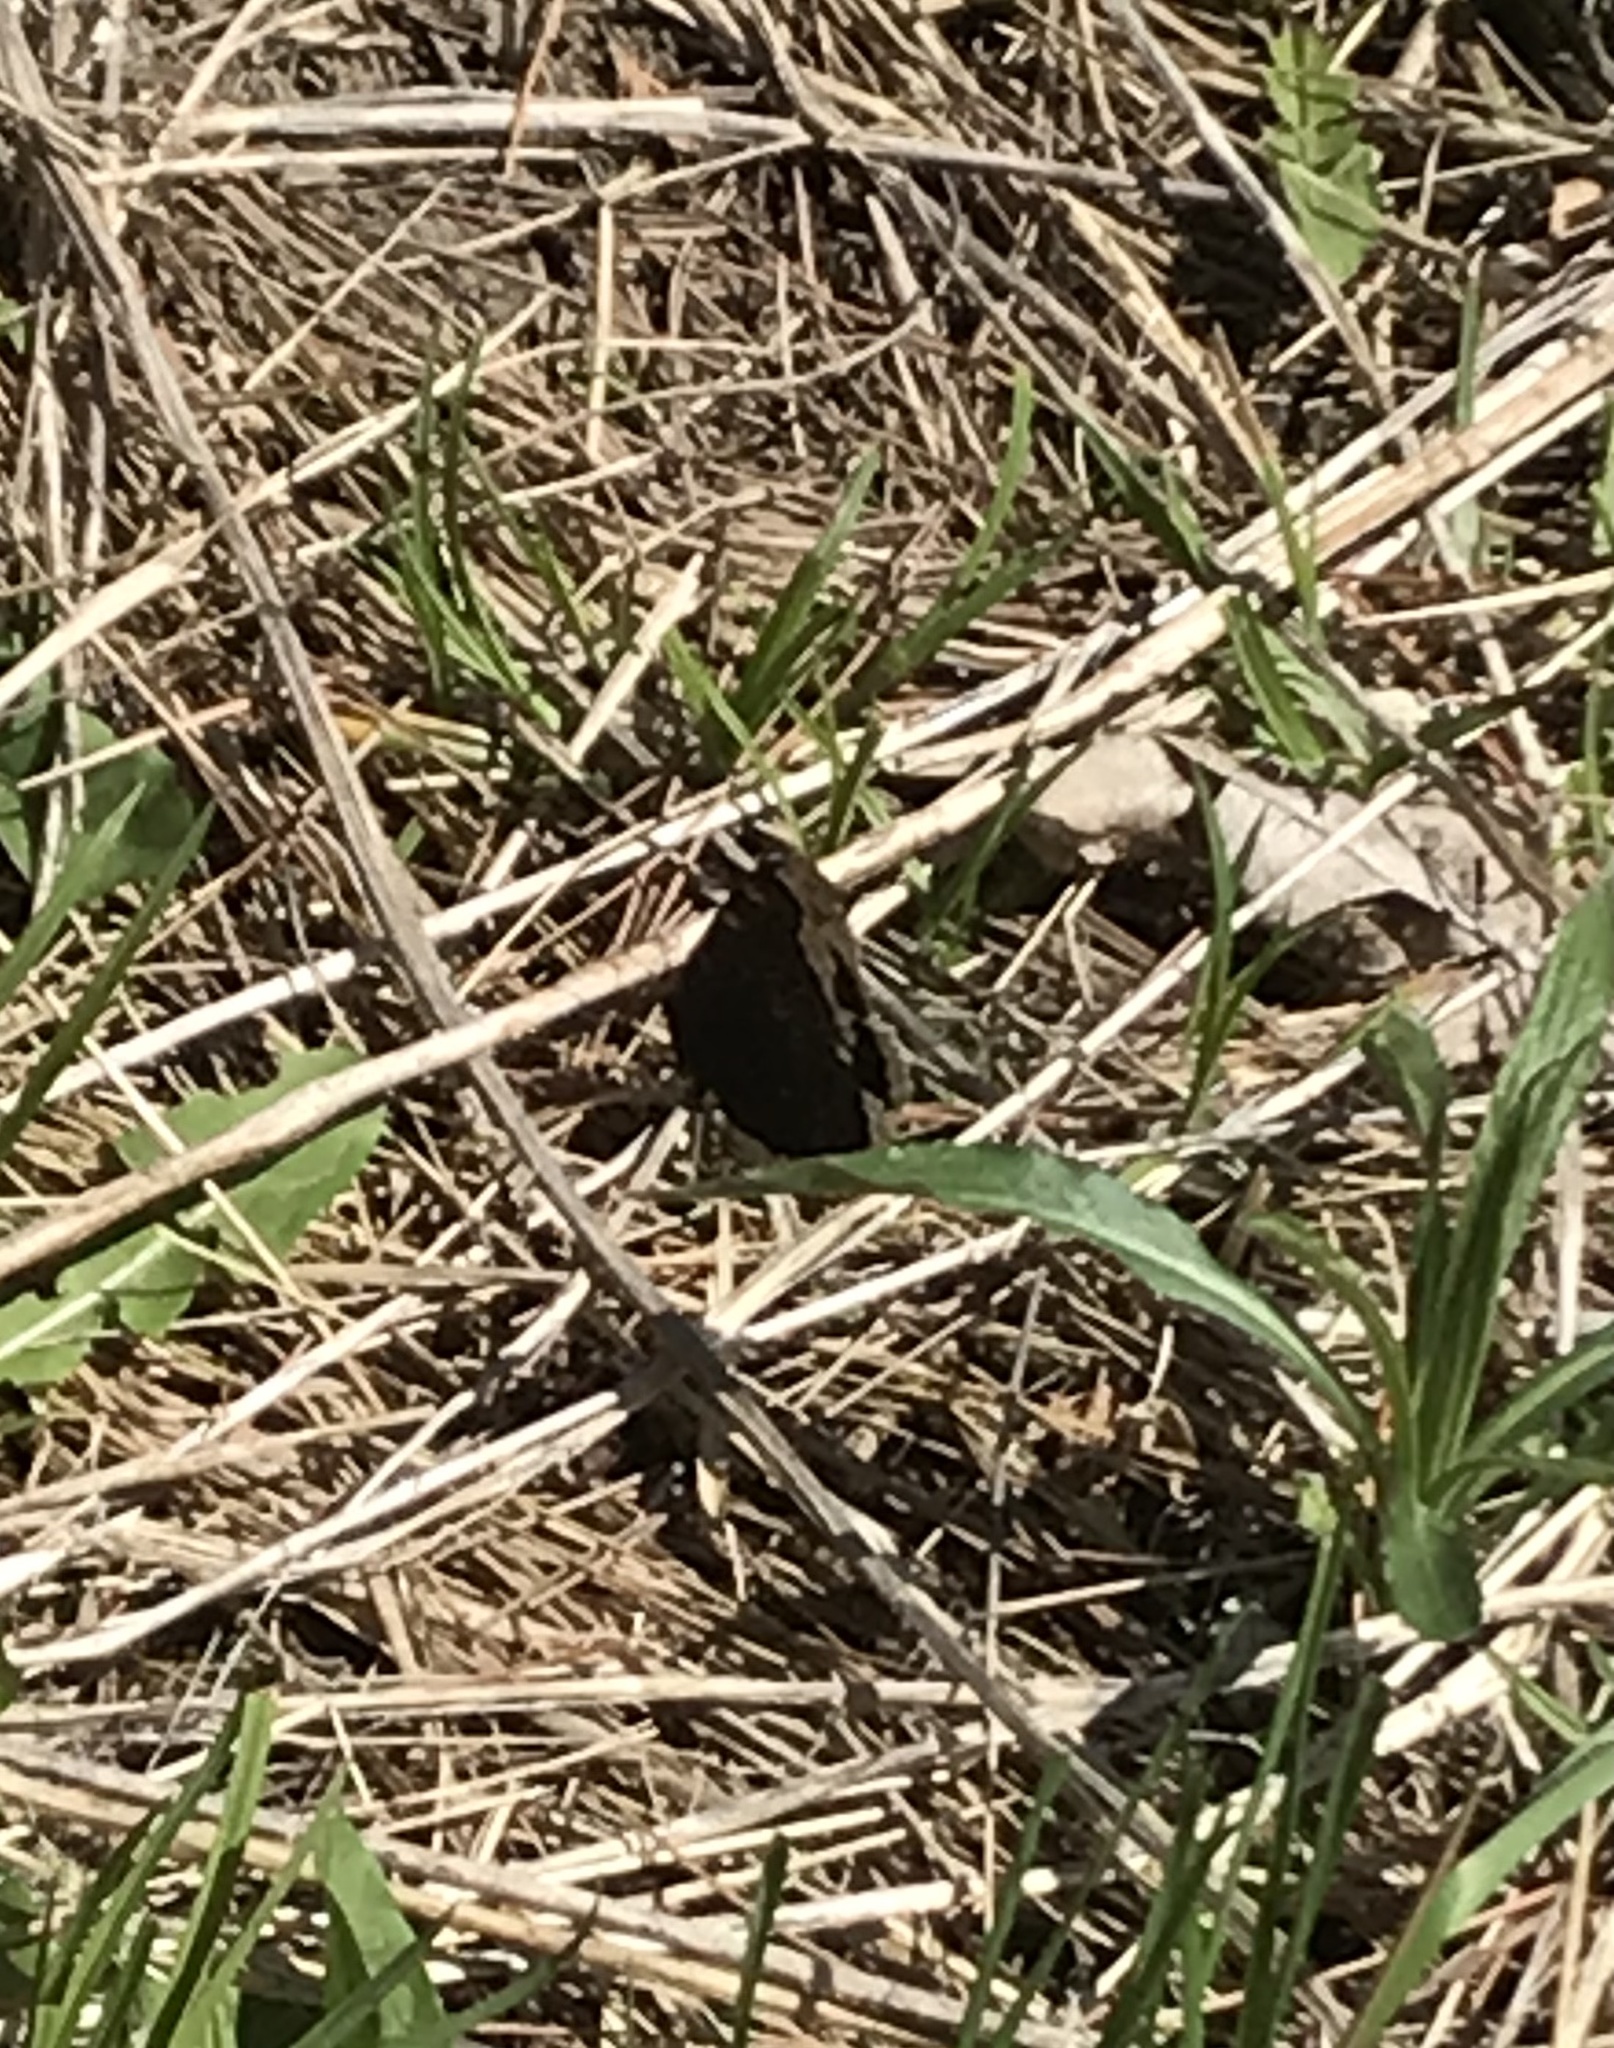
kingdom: Animalia
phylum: Arthropoda
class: Insecta
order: Lepidoptera
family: Nymphalidae
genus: Nymphalis
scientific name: Nymphalis antiopa
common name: Camberwell beauty
